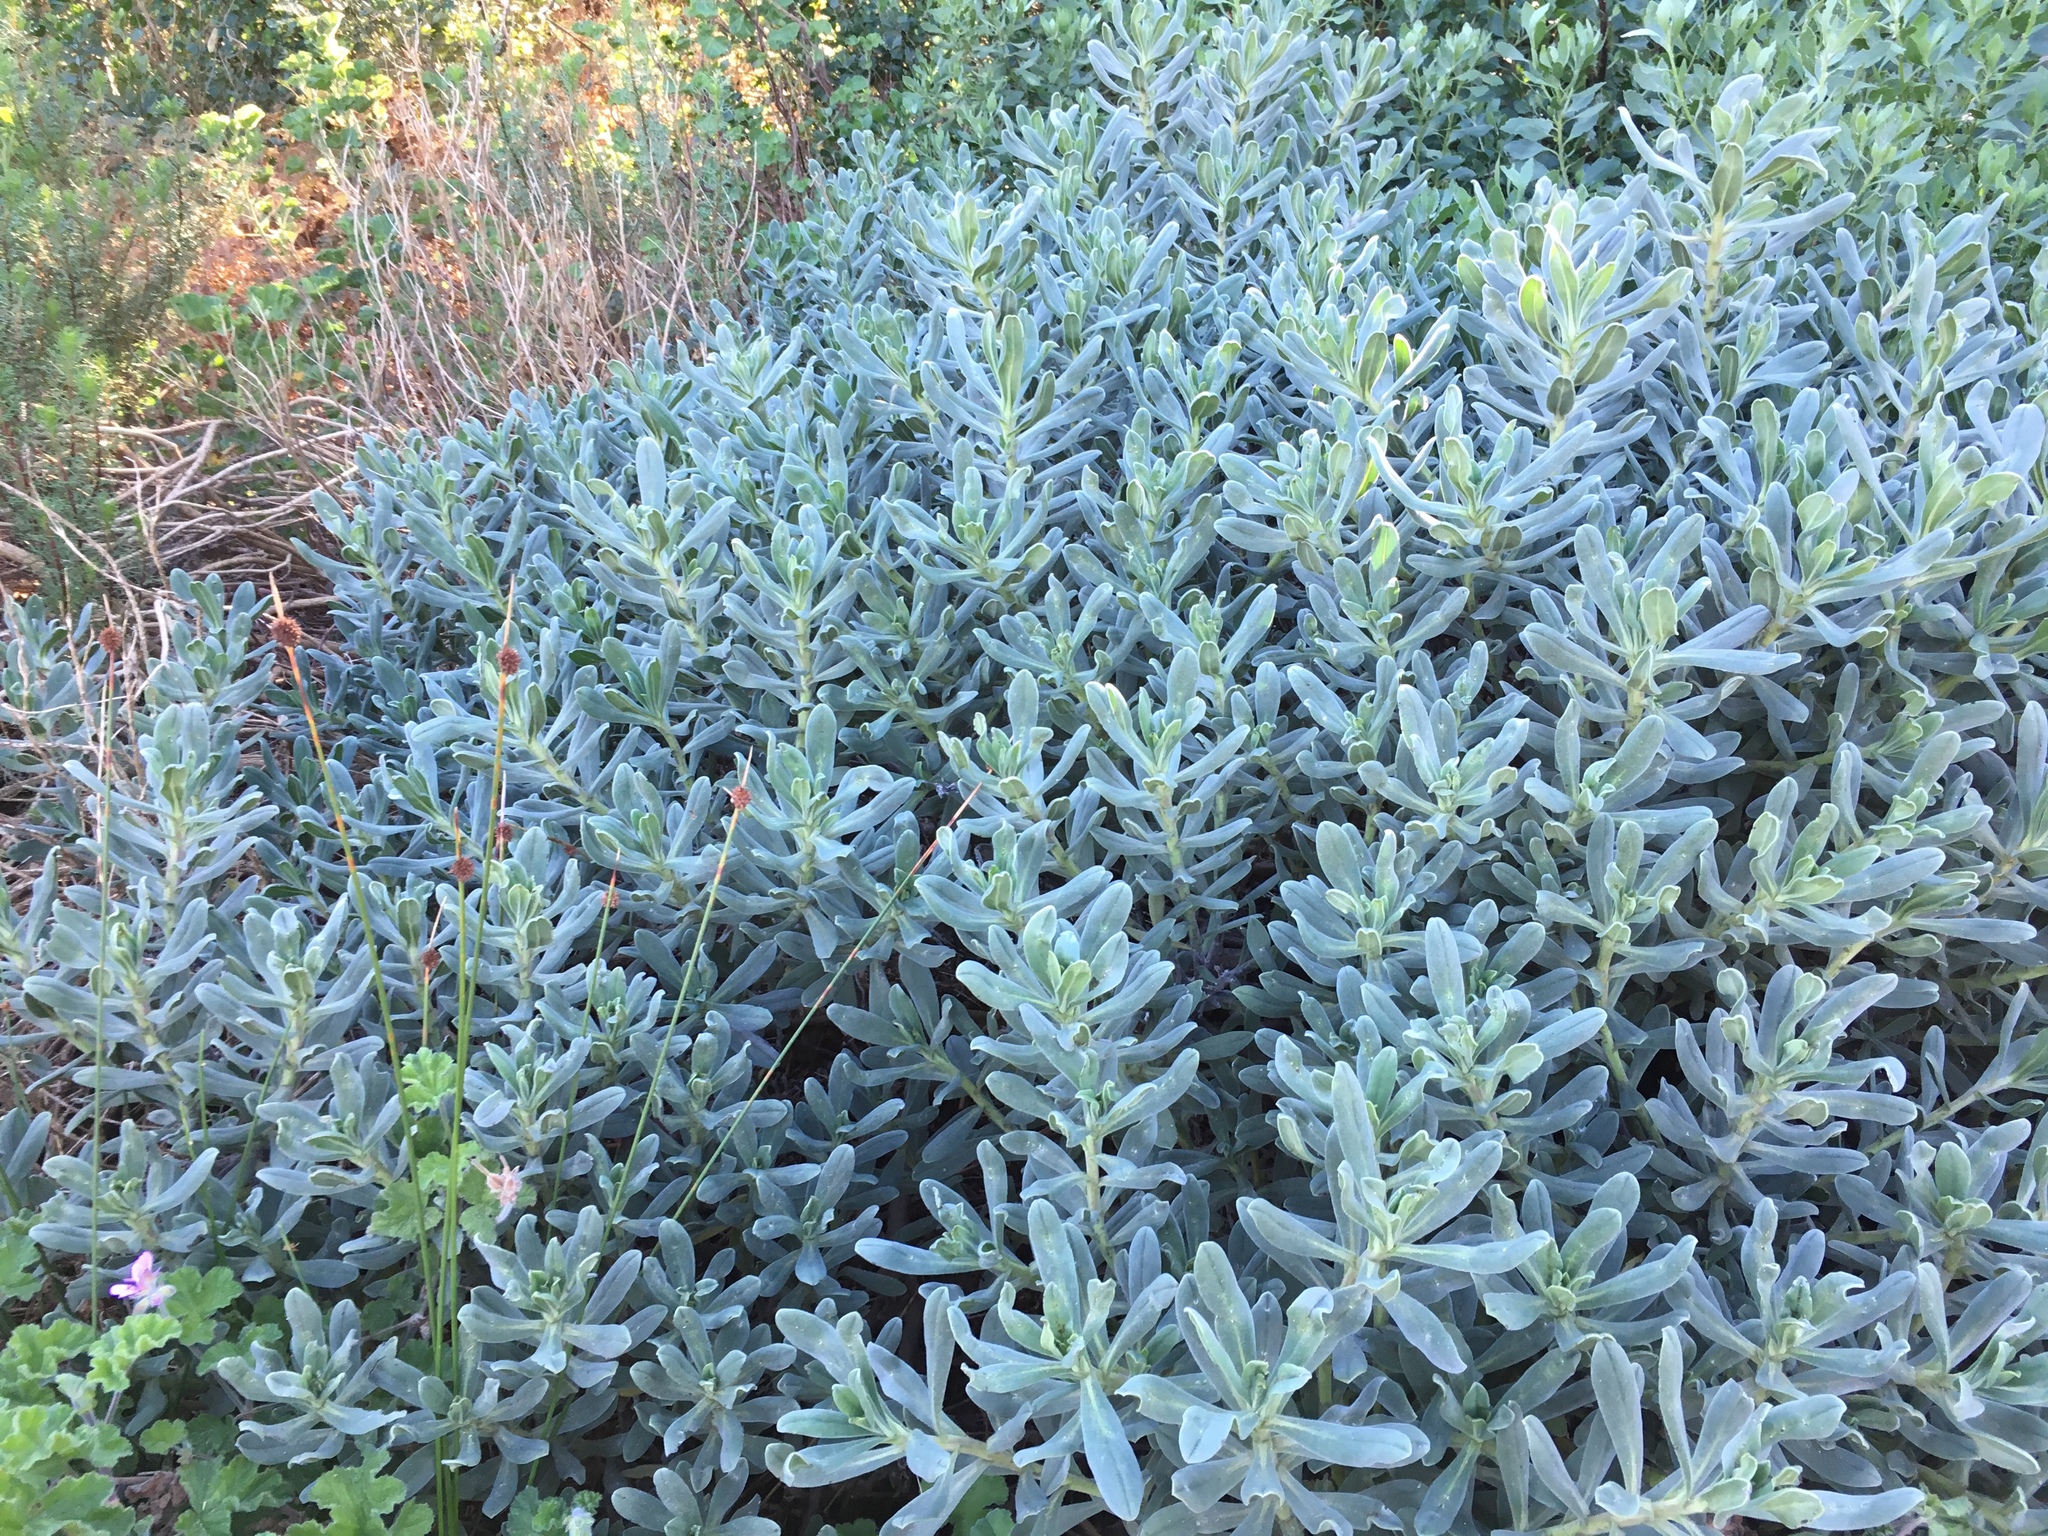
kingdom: Plantae
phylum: Tracheophyta
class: Magnoliopsida
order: Boraginales
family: Boraginaceae
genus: Lobostemon
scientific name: Lobostemon montanus
